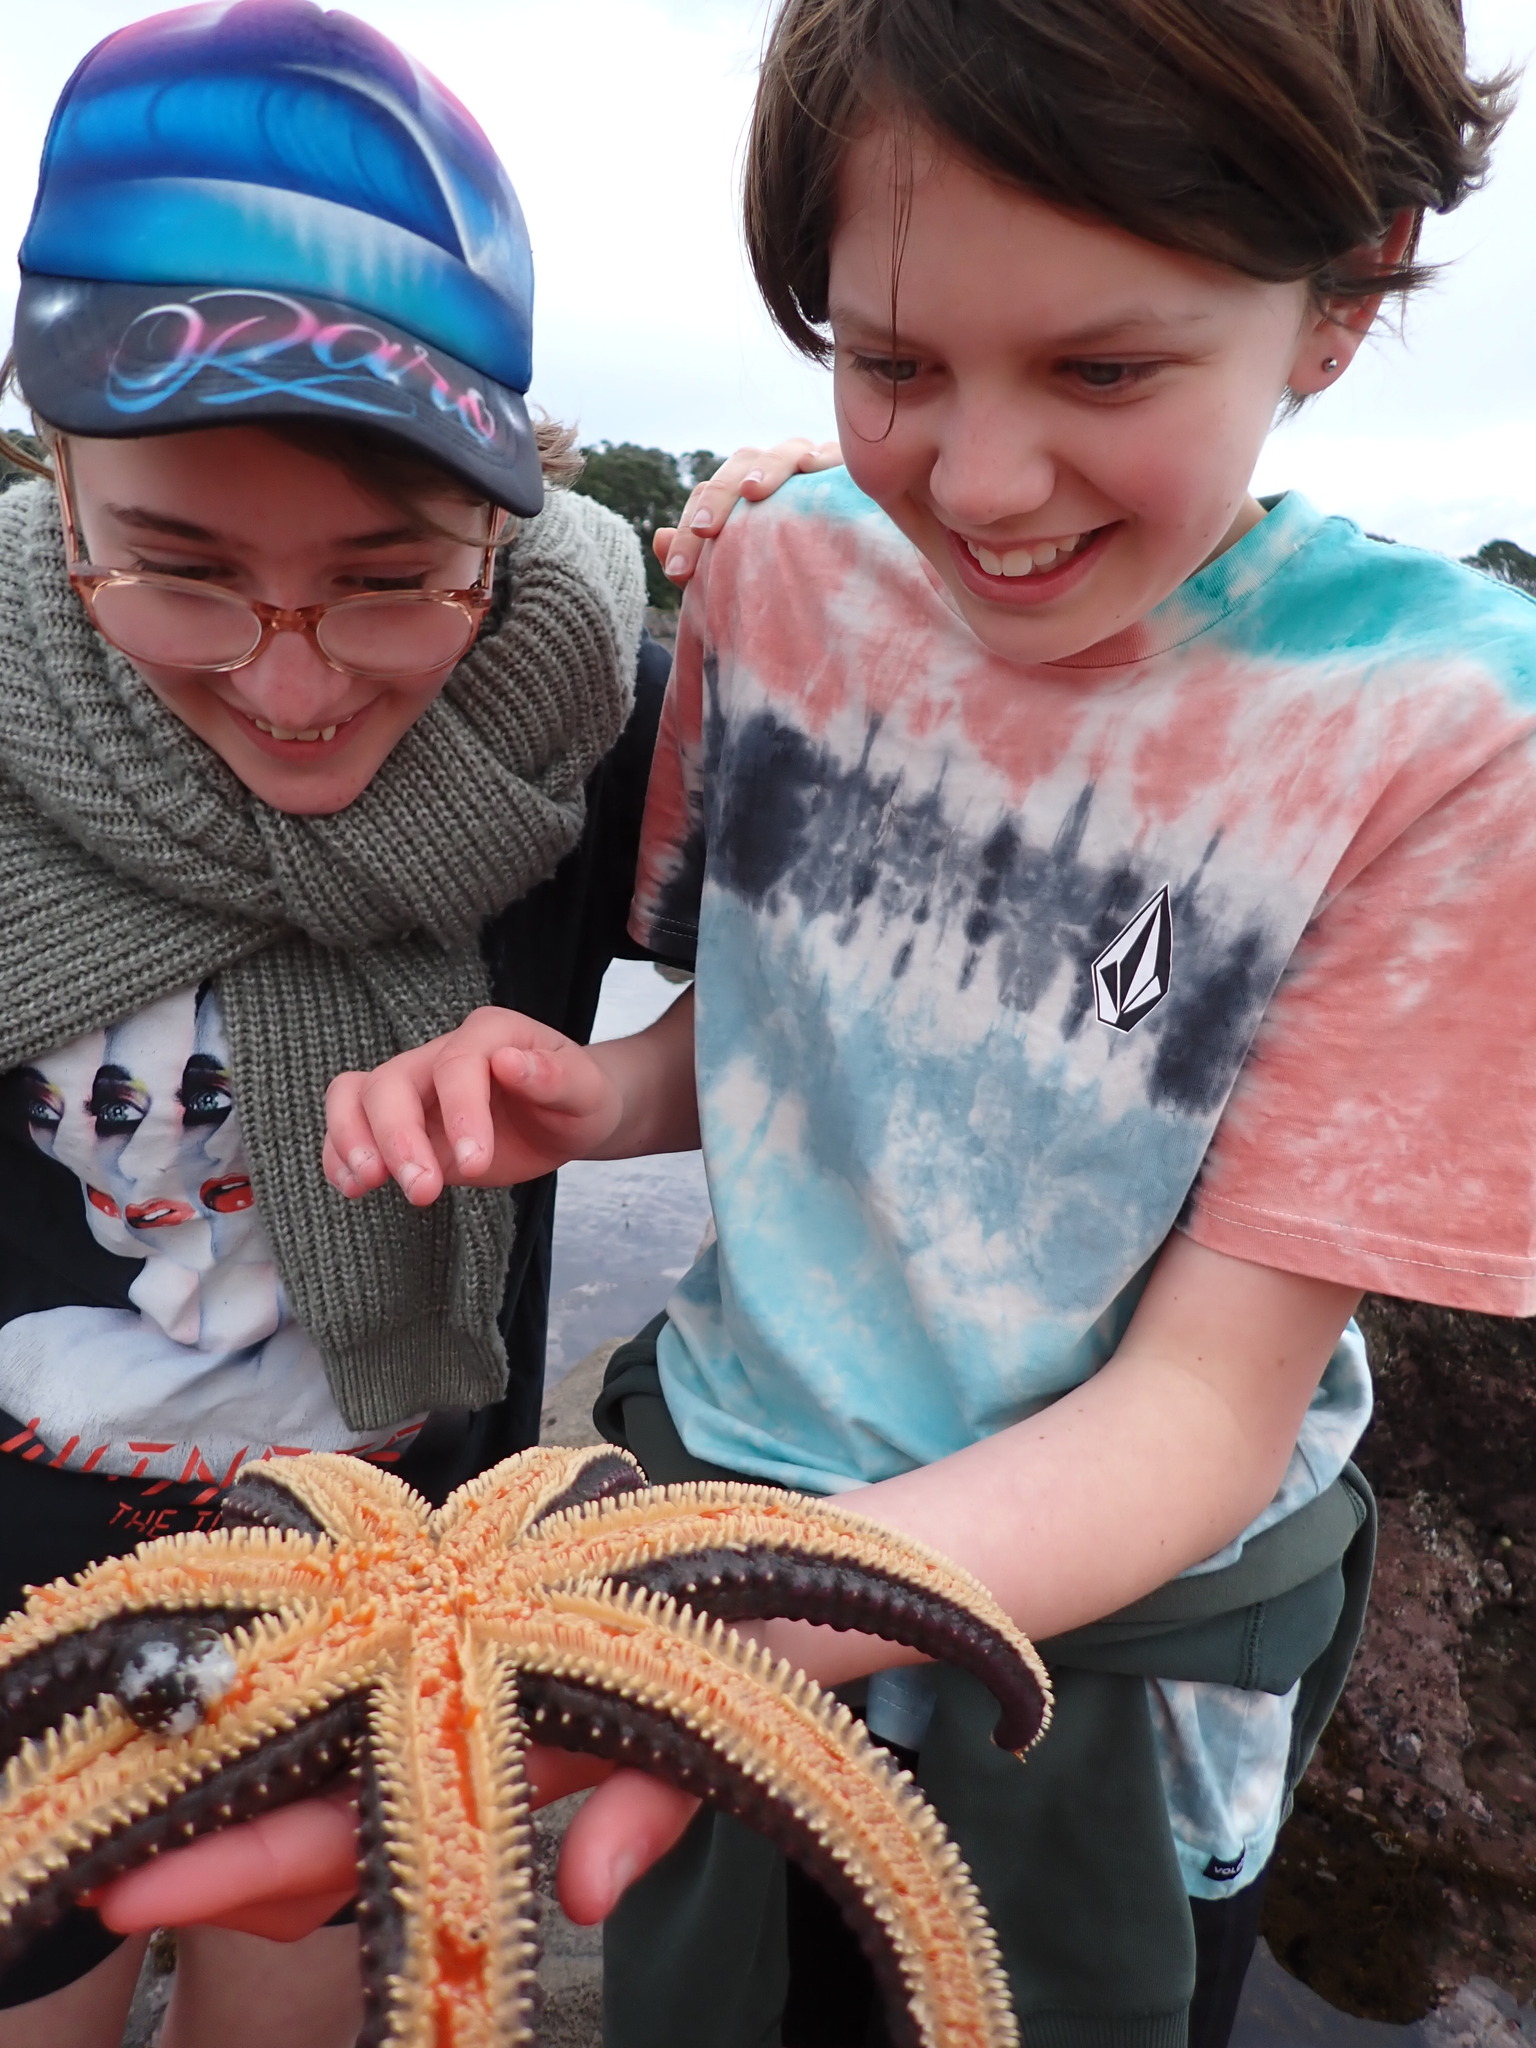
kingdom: Animalia
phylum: Echinodermata
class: Asteroidea
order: Forcipulatida
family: Asteriidae
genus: Astrostole
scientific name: Astrostole scabra
